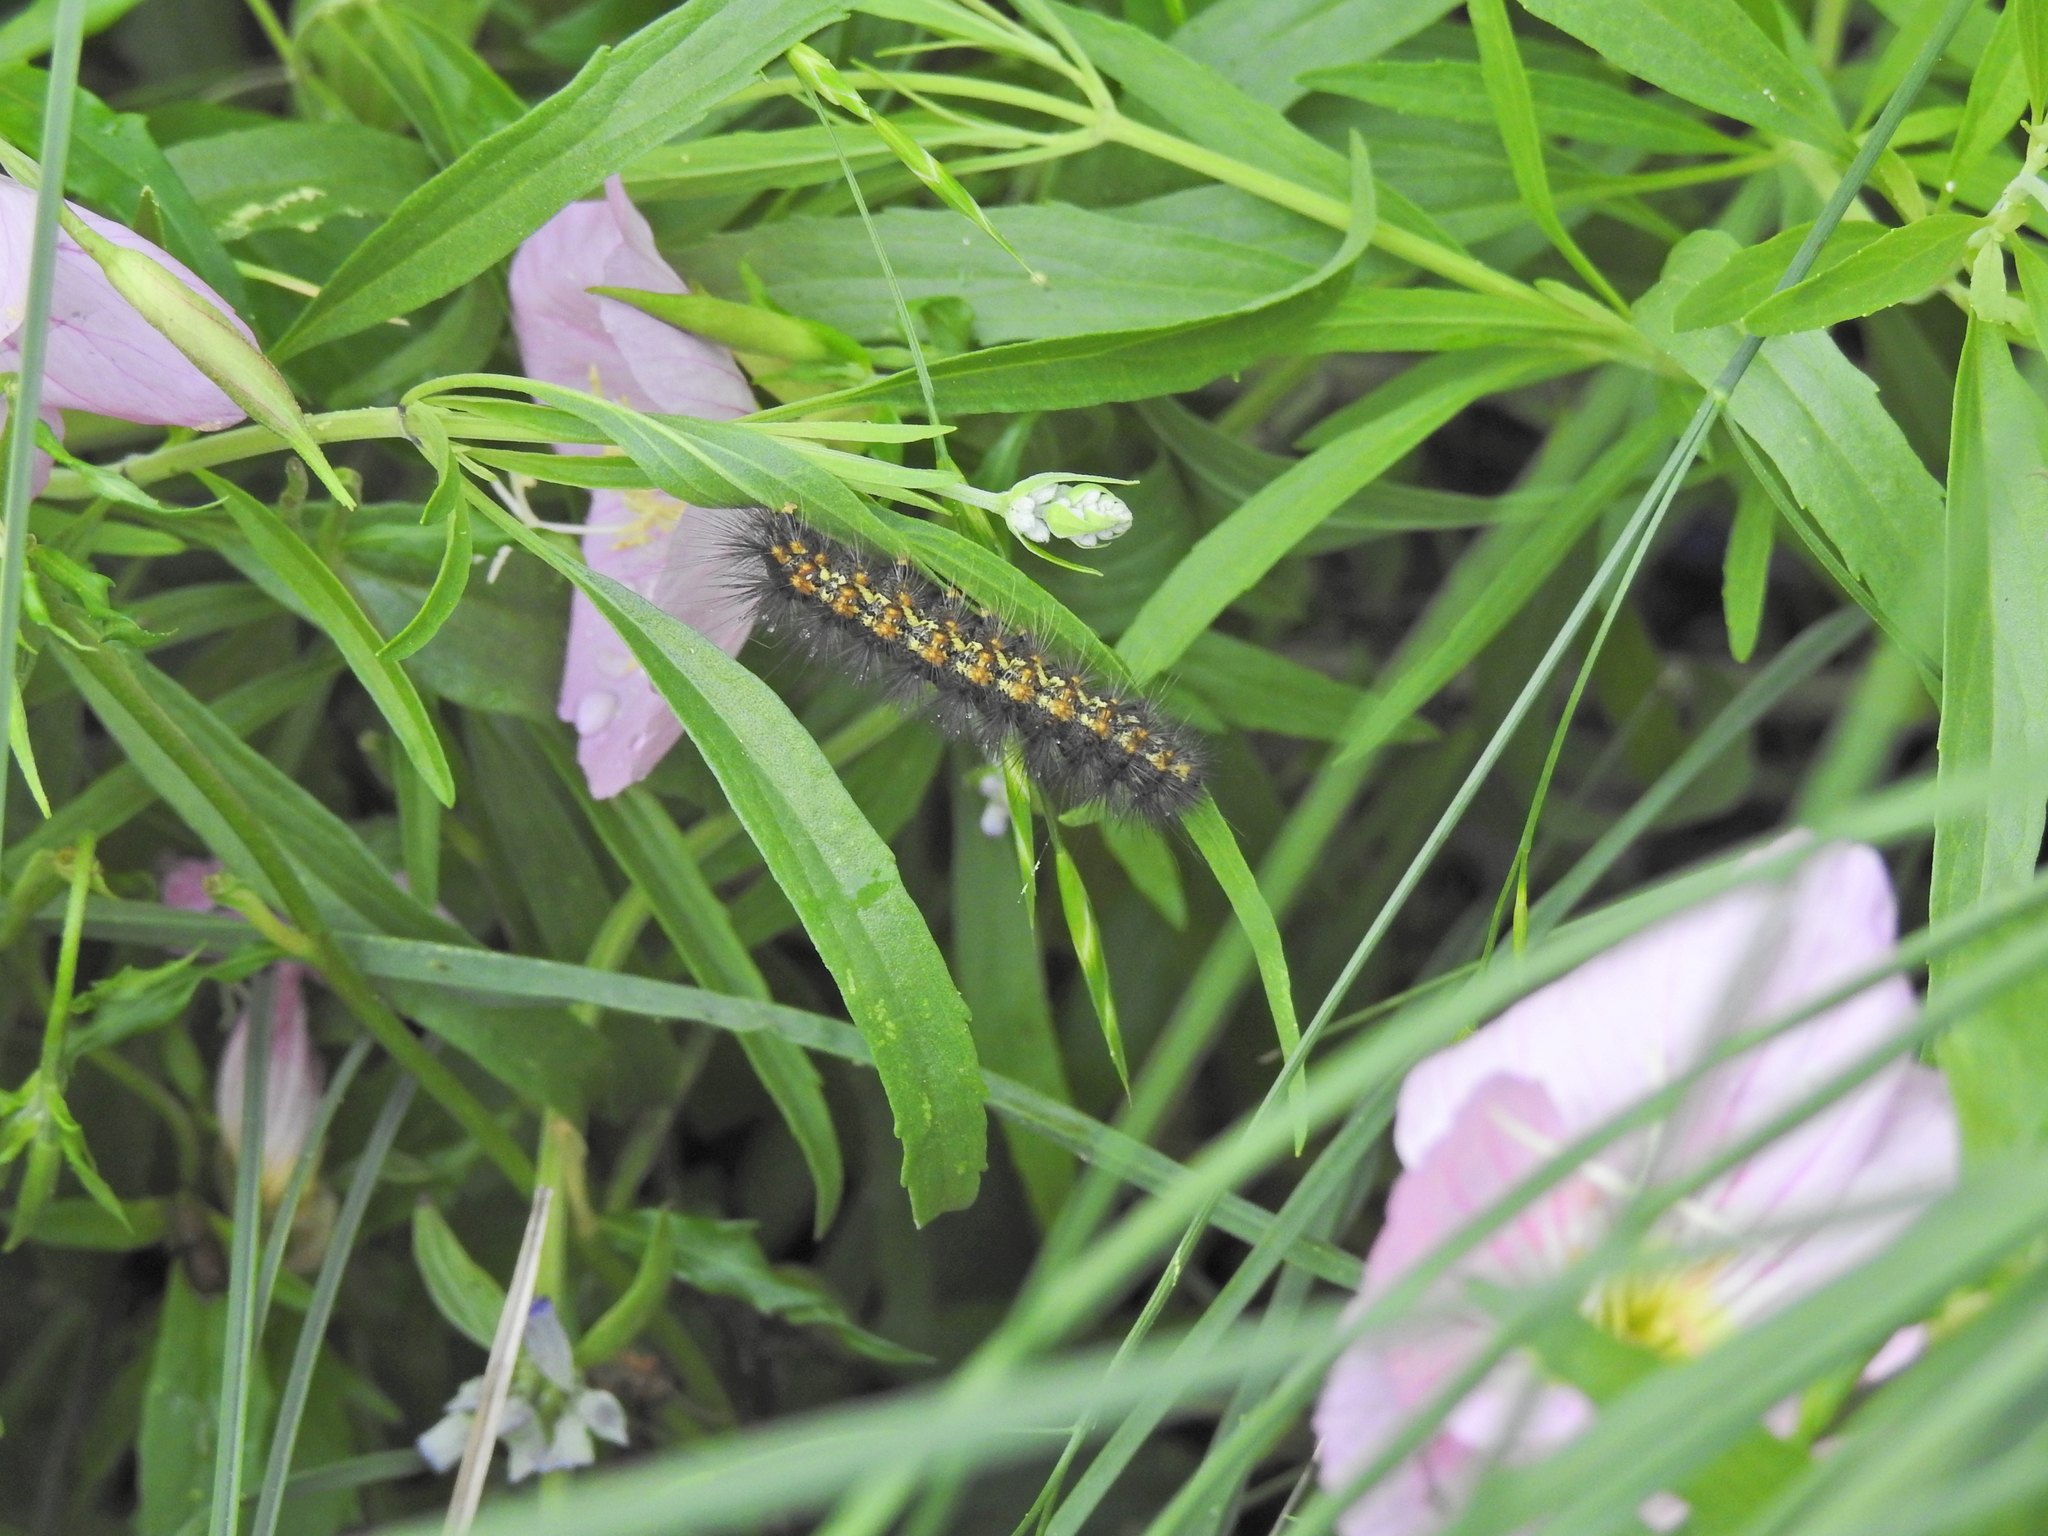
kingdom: Animalia
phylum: Arthropoda
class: Insecta
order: Lepidoptera
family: Erebidae
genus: Estigmene
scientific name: Estigmene acrea
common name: Salt marsh moth
